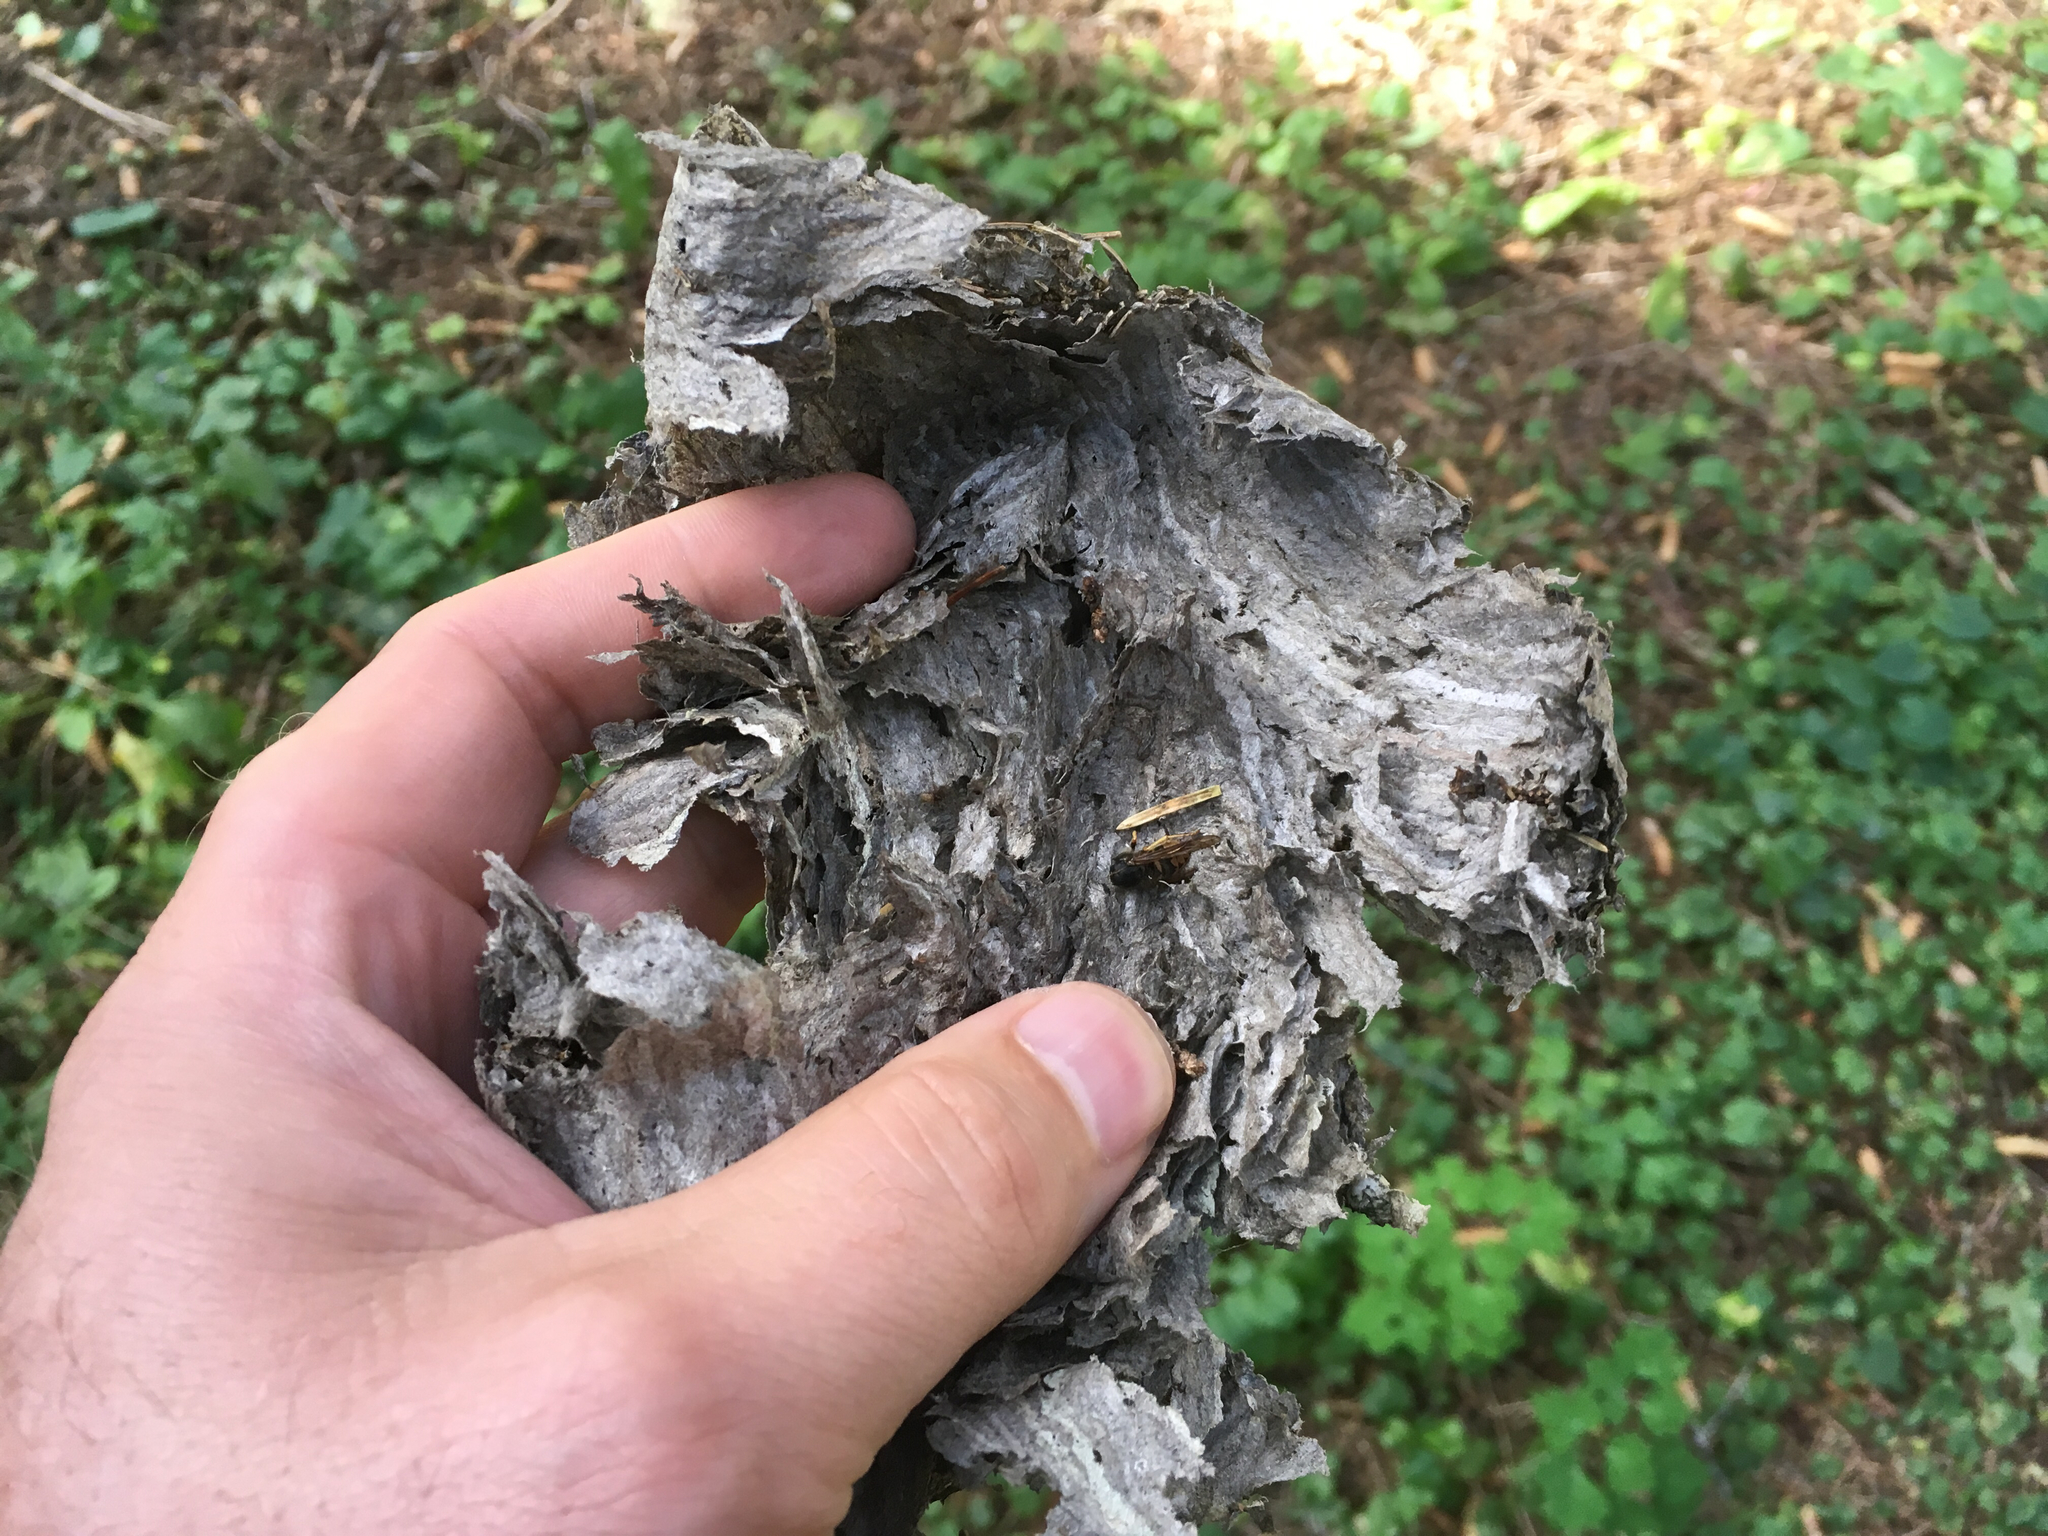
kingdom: Animalia
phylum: Arthropoda
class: Insecta
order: Hymenoptera
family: Vespidae
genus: Dolichovespula
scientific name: Dolichovespula arenaria
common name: Aerial yellowjacket
